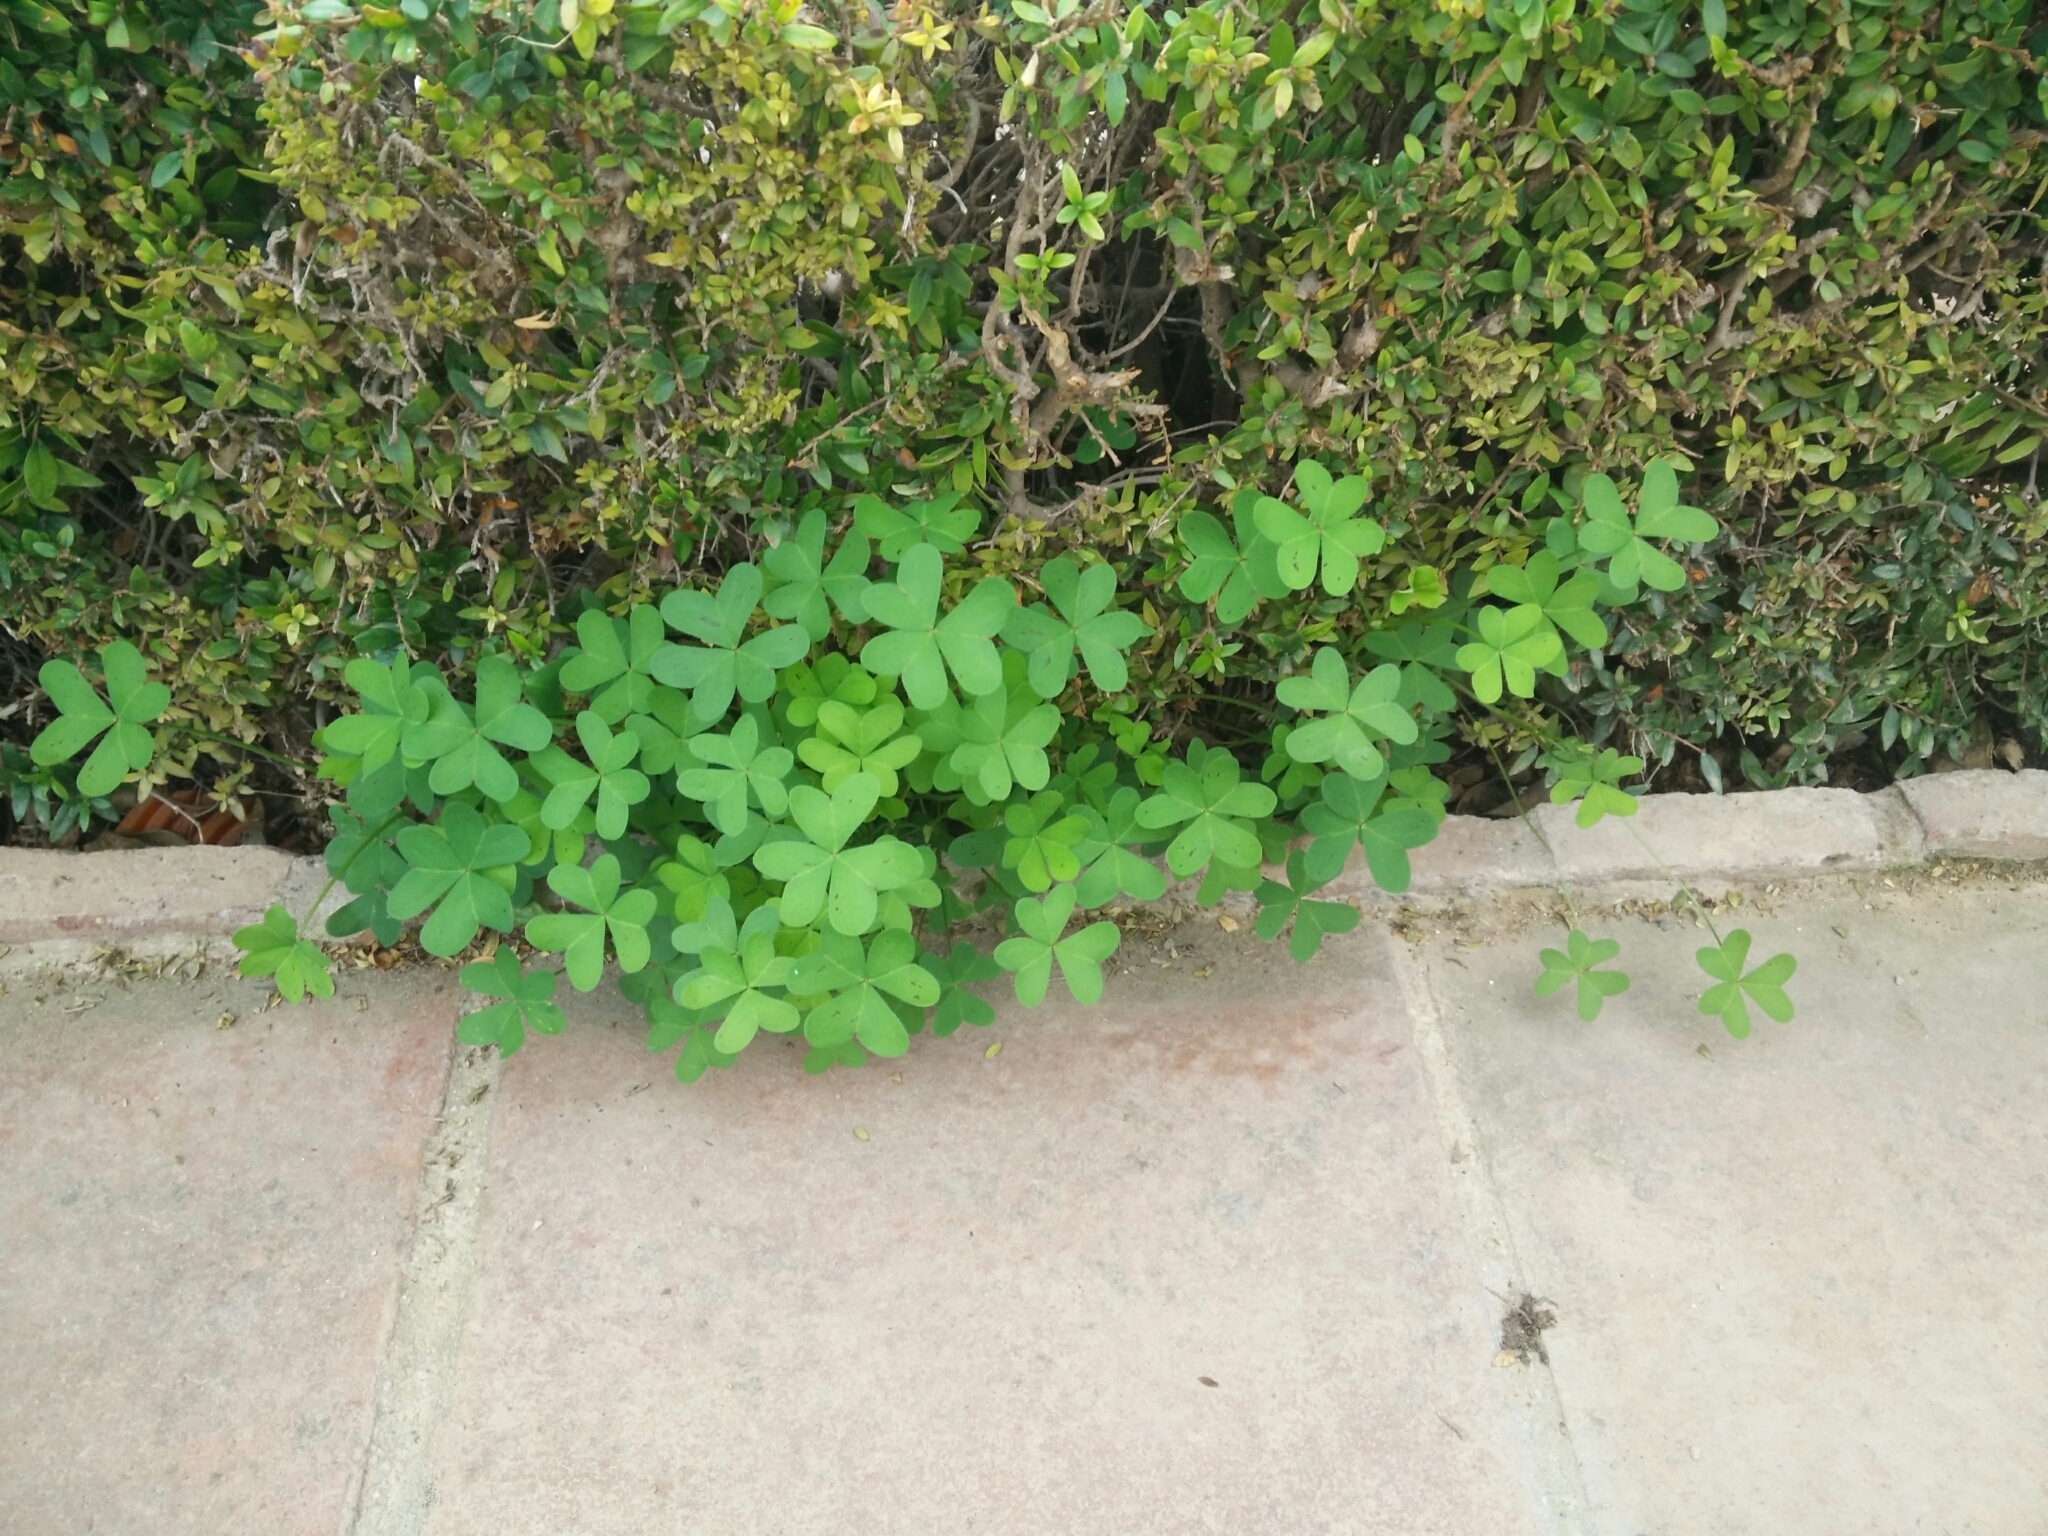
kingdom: Plantae
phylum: Tracheophyta
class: Magnoliopsida
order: Oxalidales
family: Oxalidaceae
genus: Oxalis
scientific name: Oxalis pes-caprae
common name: Bermuda-buttercup
